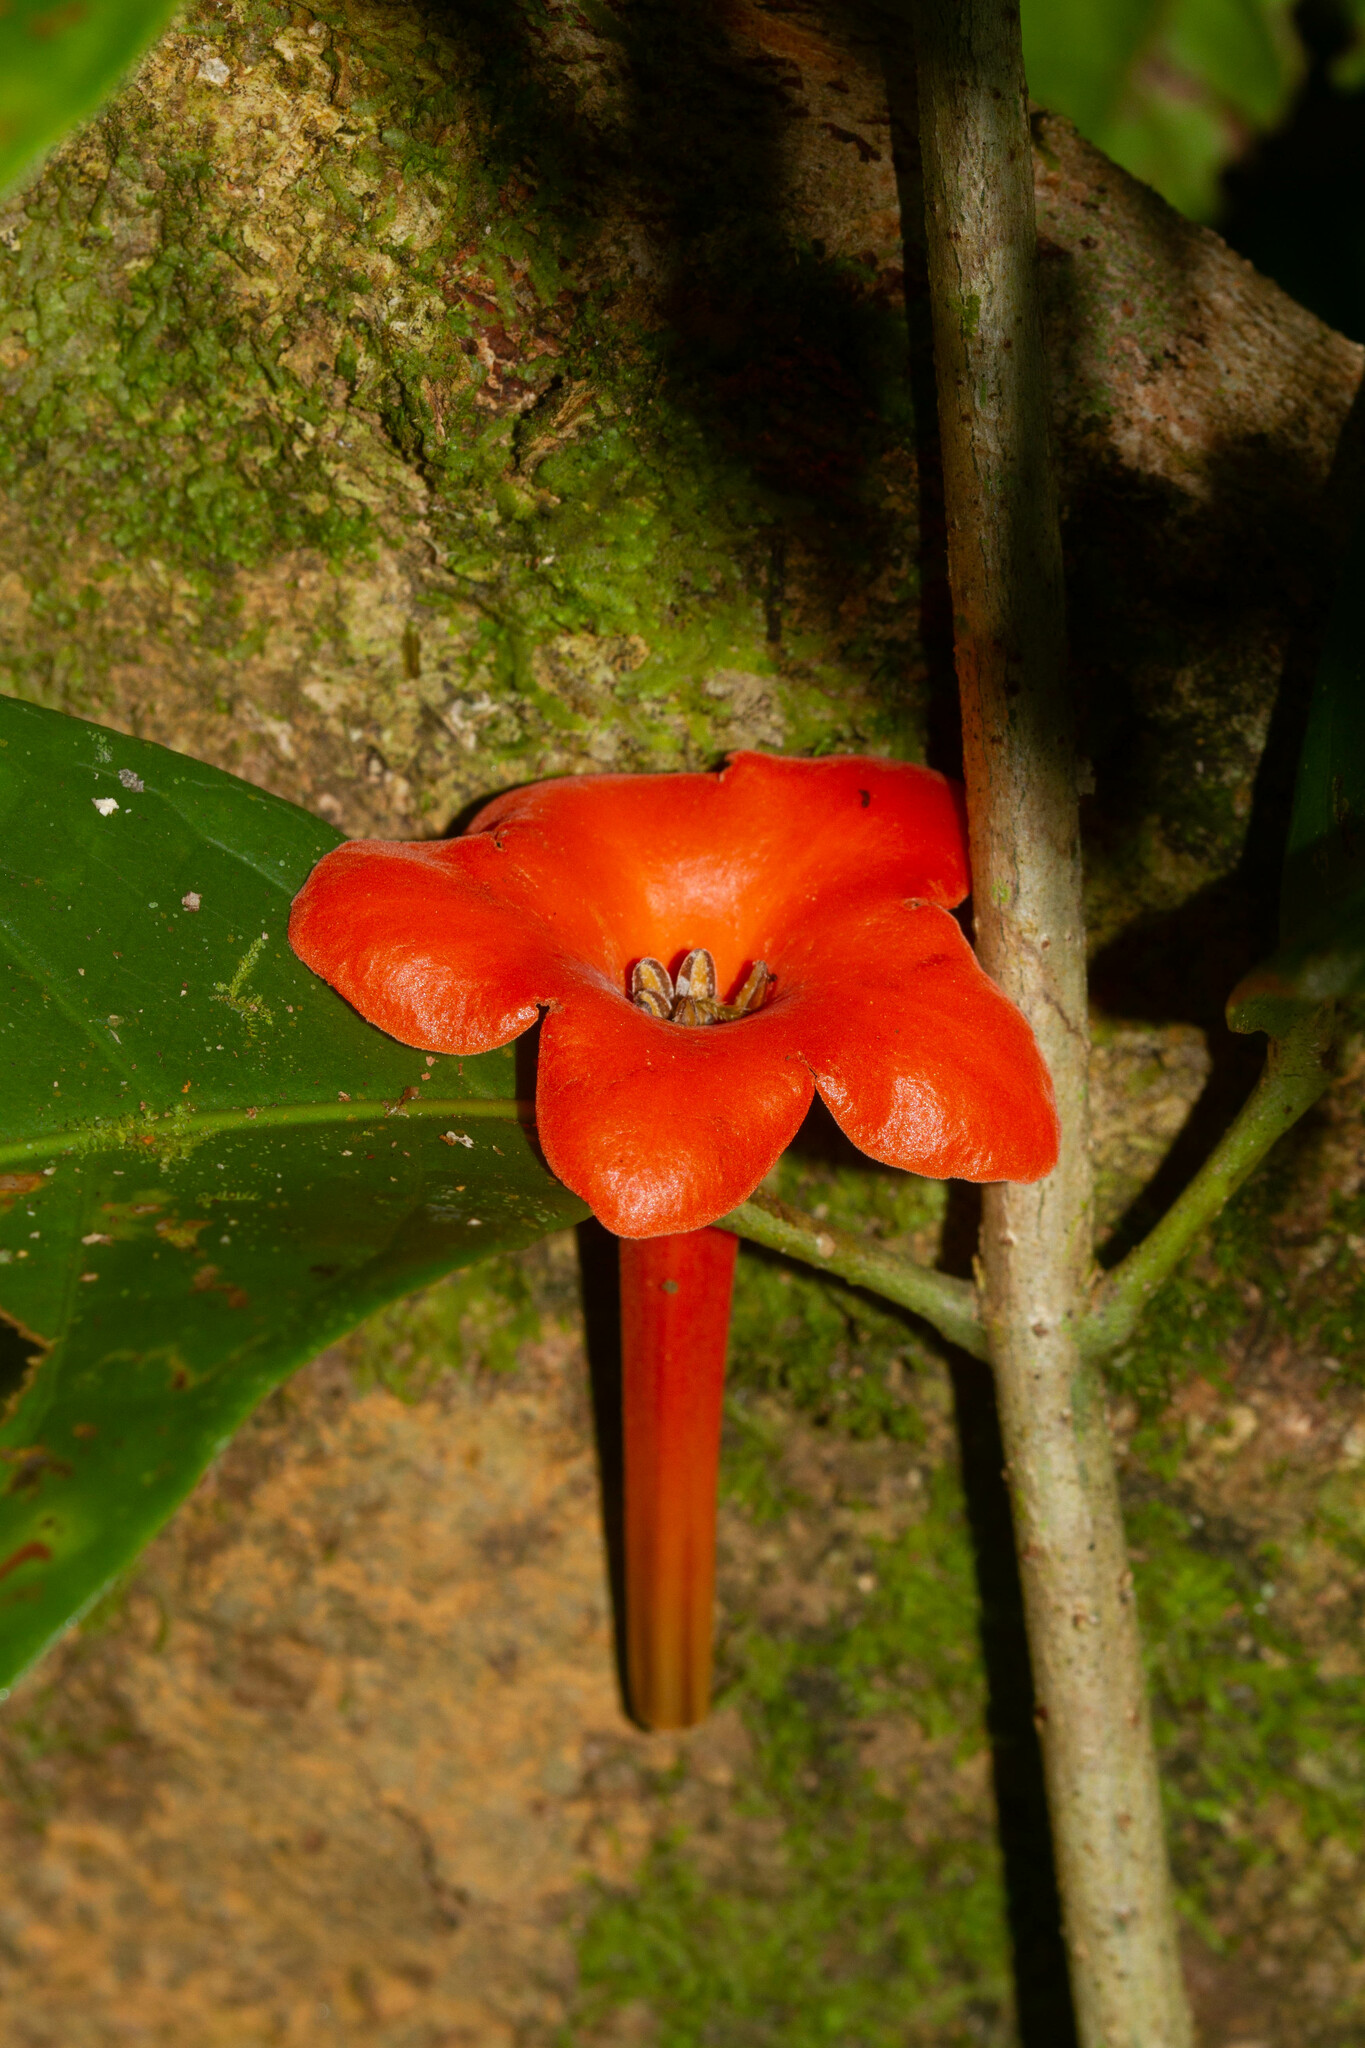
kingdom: Plantae
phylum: Tracheophyta
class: Magnoliopsida
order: Solanales
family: Solanaceae
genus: Markea
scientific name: Markea coccinea
